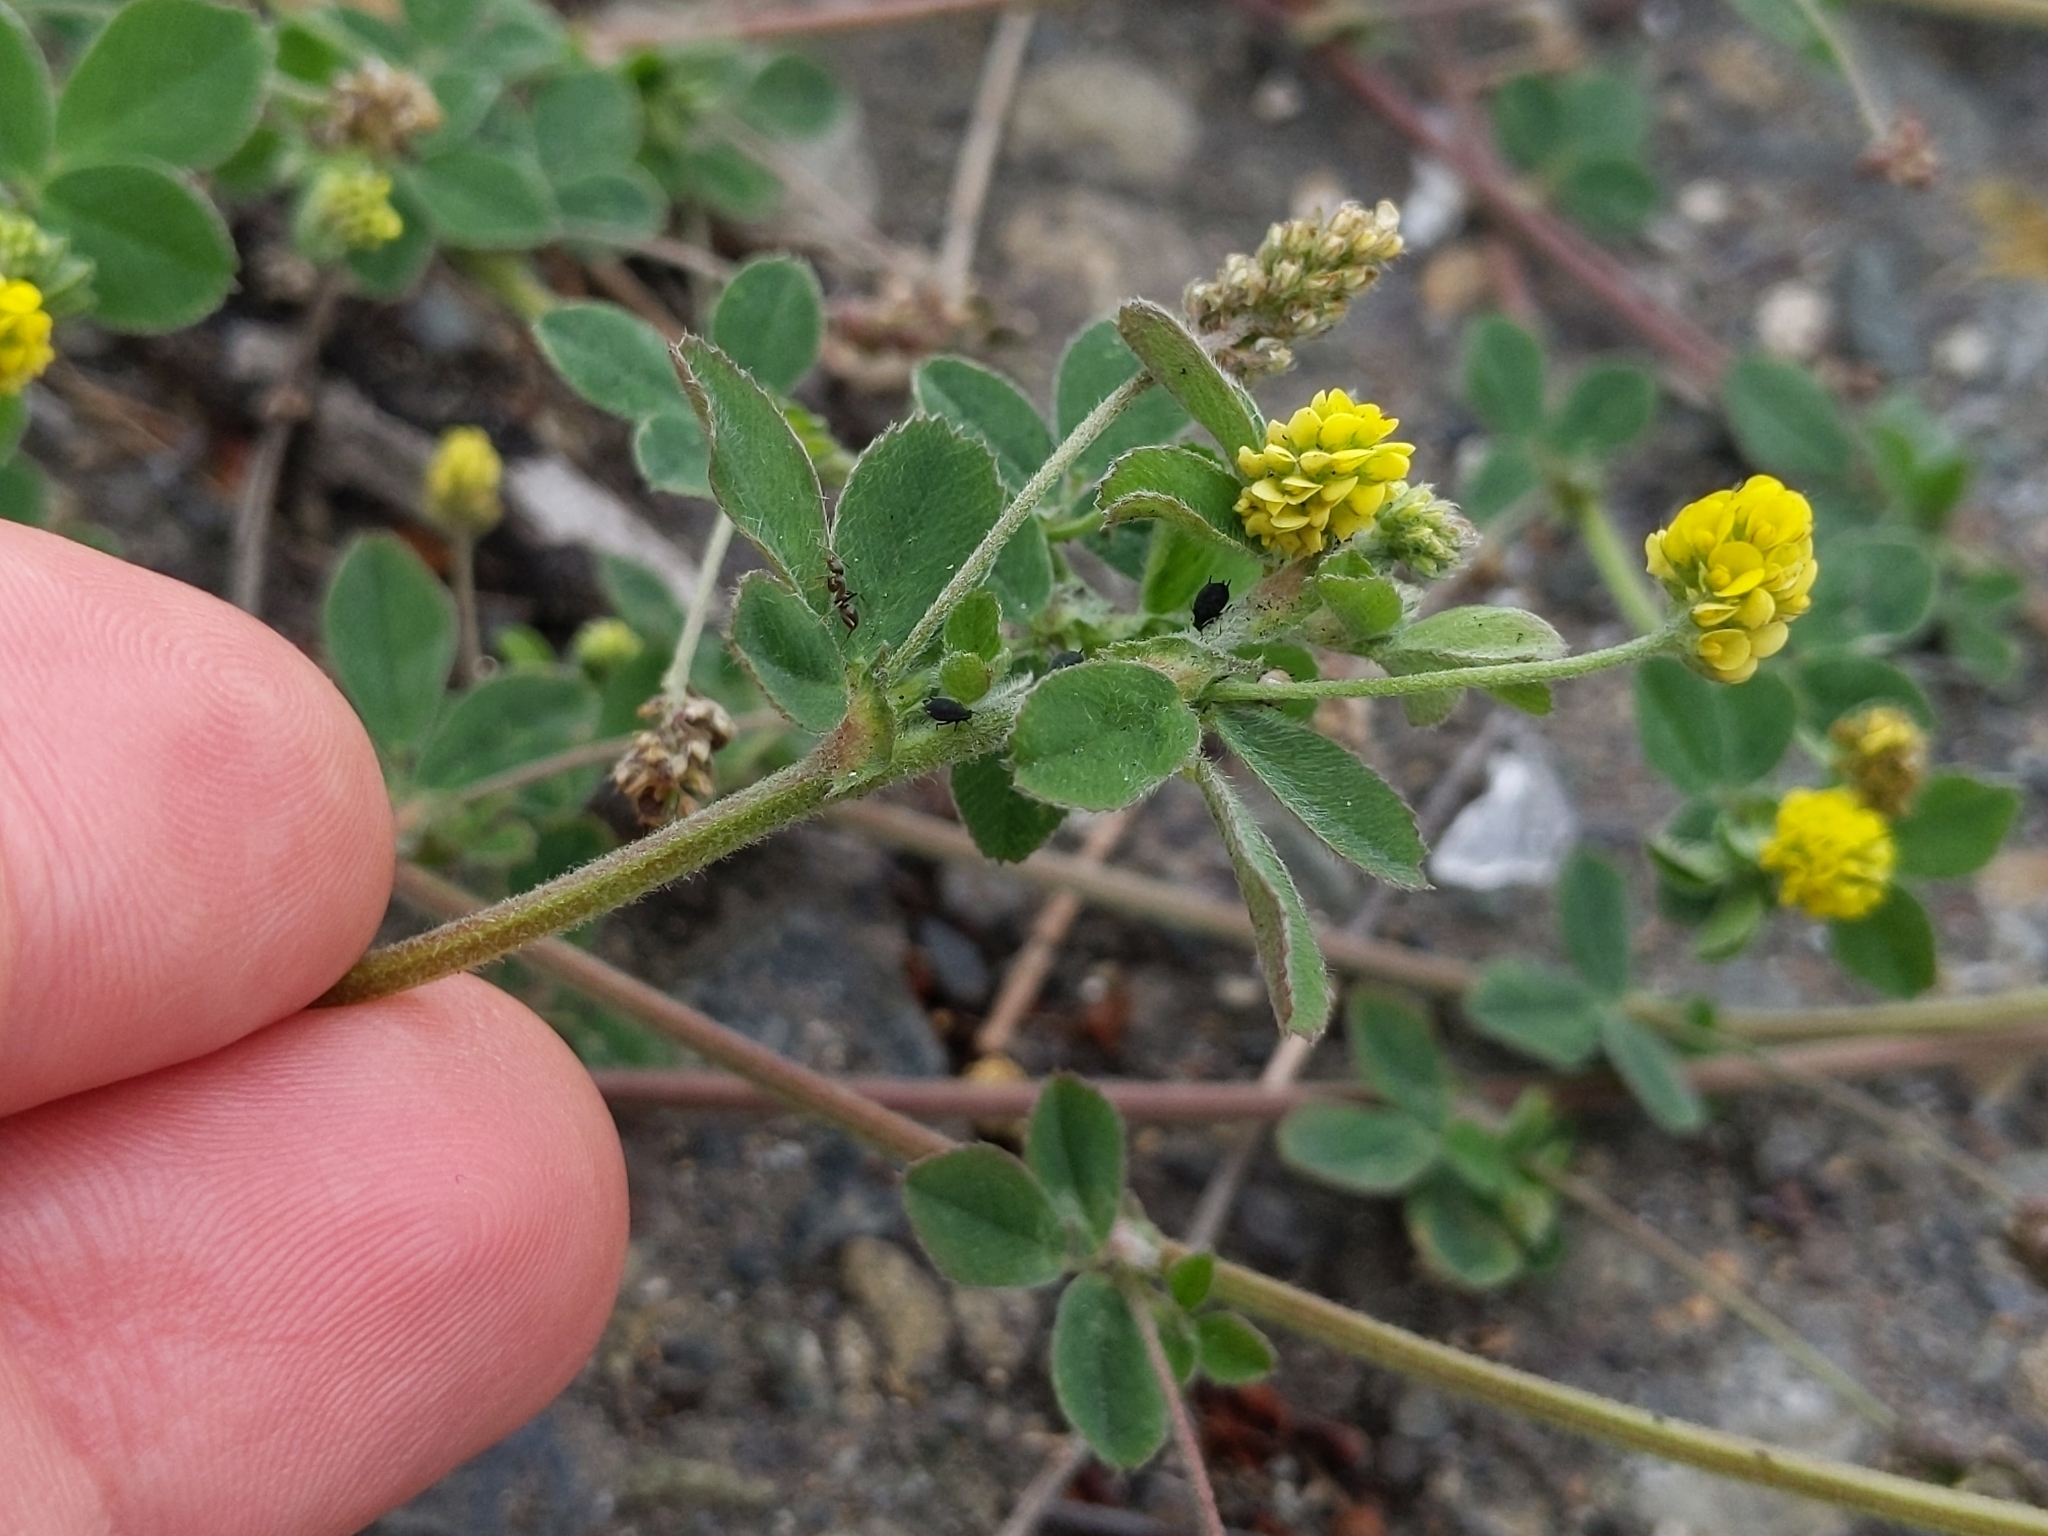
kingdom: Plantae
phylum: Tracheophyta
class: Magnoliopsida
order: Fabales
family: Fabaceae
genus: Medicago
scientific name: Medicago lupulina
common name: Black medick
